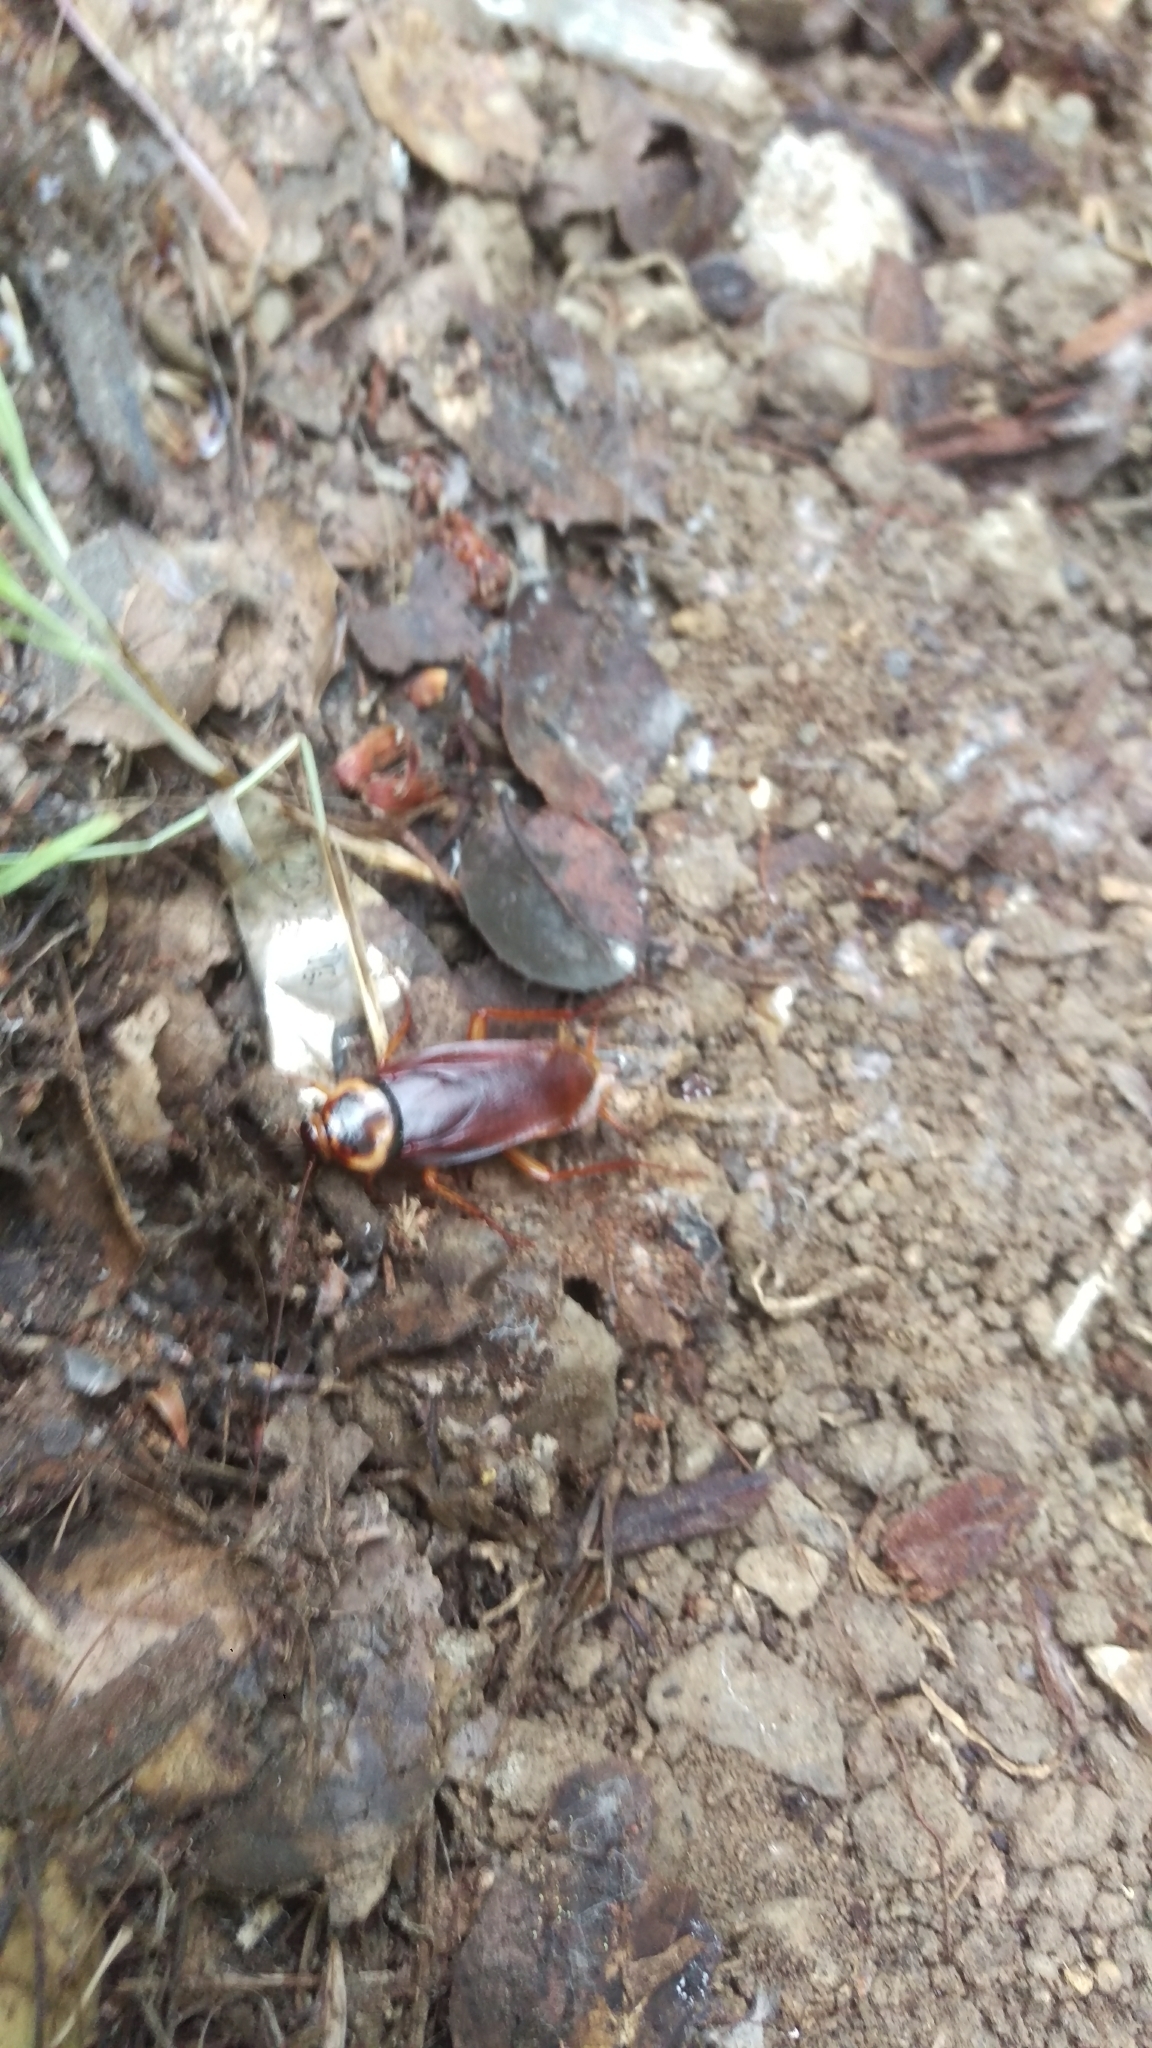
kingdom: Animalia
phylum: Arthropoda
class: Insecta
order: Blattodea
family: Blattidae
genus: Periplaneta
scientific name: Periplaneta americana
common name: American cockroach
